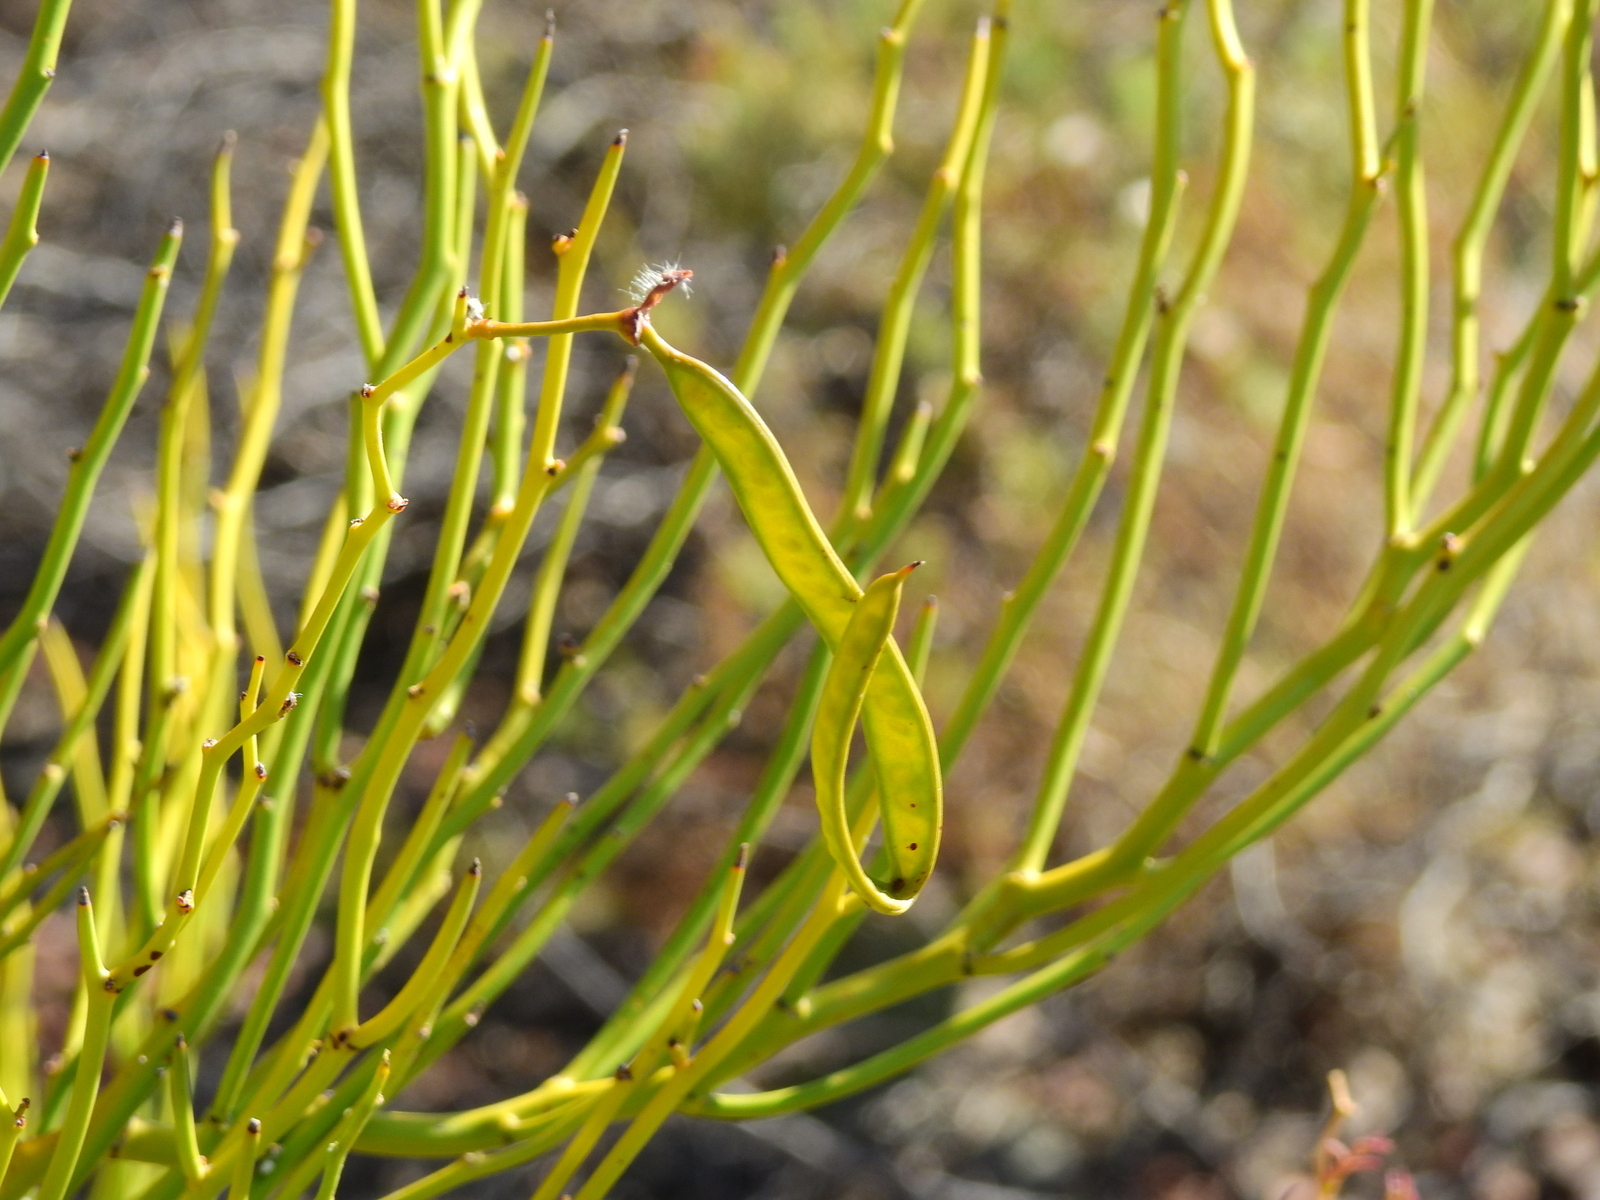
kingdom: Plantae
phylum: Tracheophyta
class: Magnoliopsida
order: Fabales
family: Fabaceae
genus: Senna
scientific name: Senna aphylla
